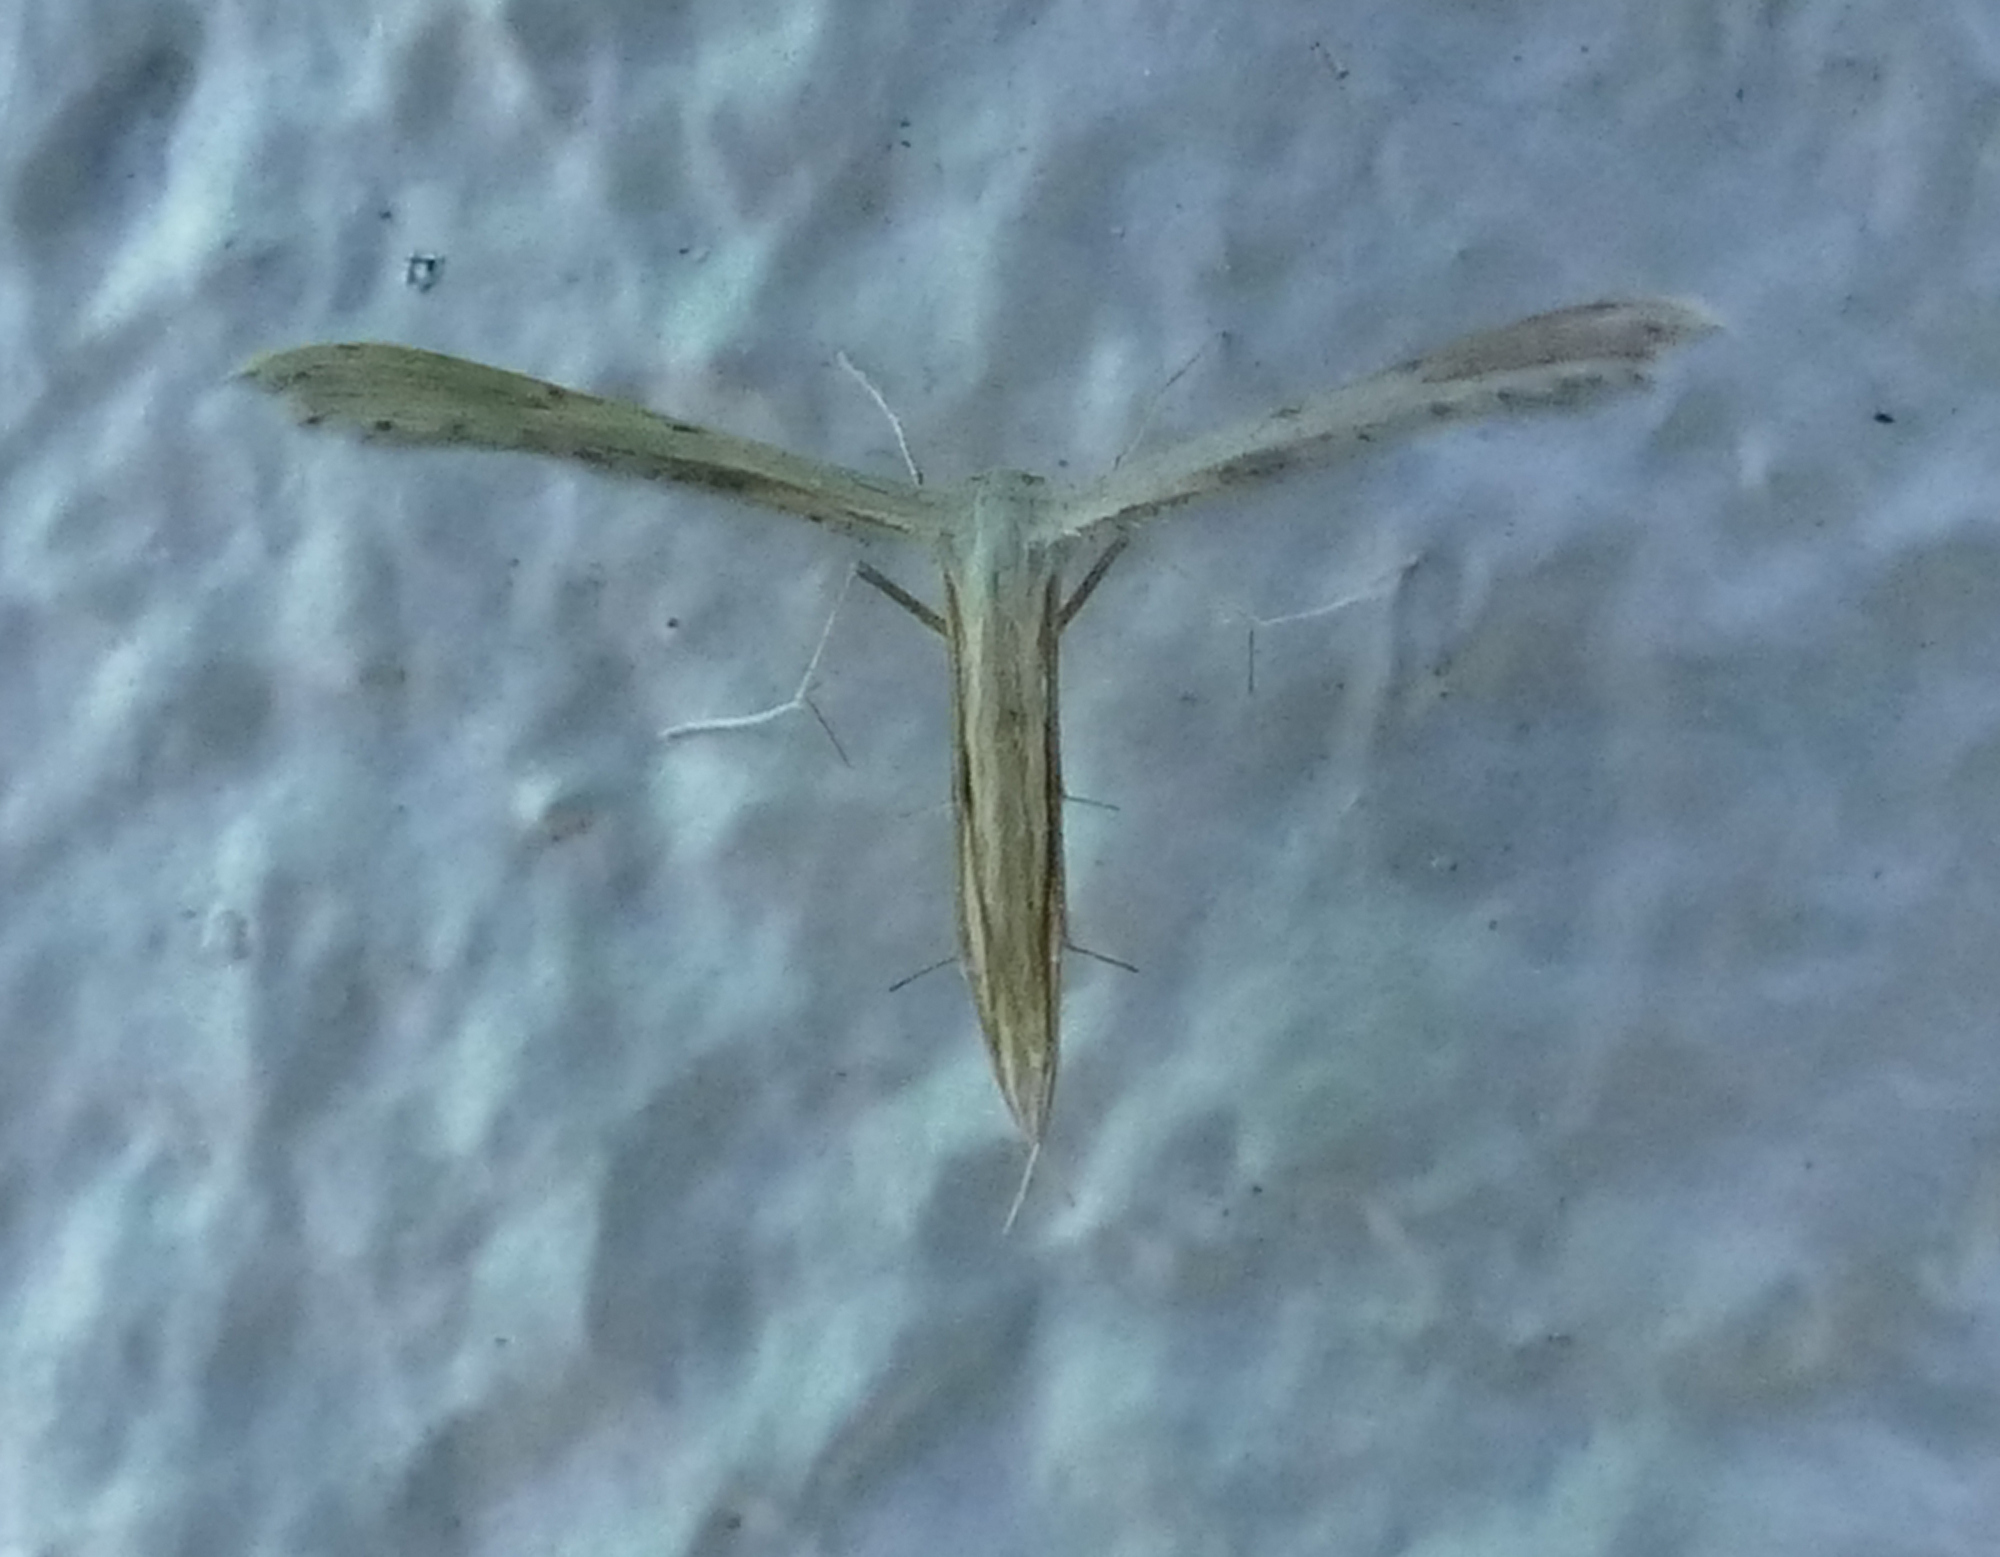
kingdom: Animalia
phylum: Arthropoda
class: Insecta
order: Lepidoptera
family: Pterophoridae
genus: Exelastis
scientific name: Exelastis montischristi
